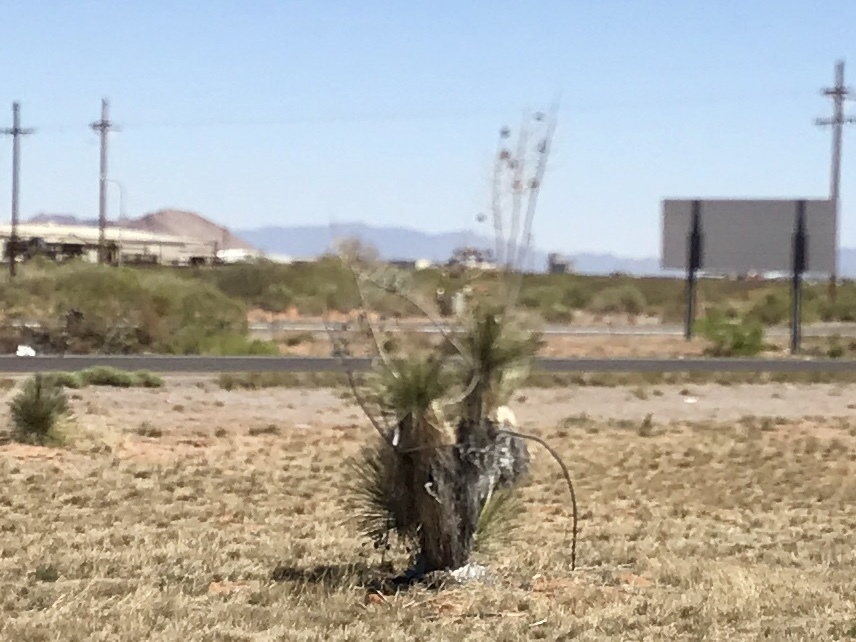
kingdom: Plantae
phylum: Tracheophyta
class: Liliopsida
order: Asparagales
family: Asparagaceae
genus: Yucca
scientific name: Yucca elata
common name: Palmella
